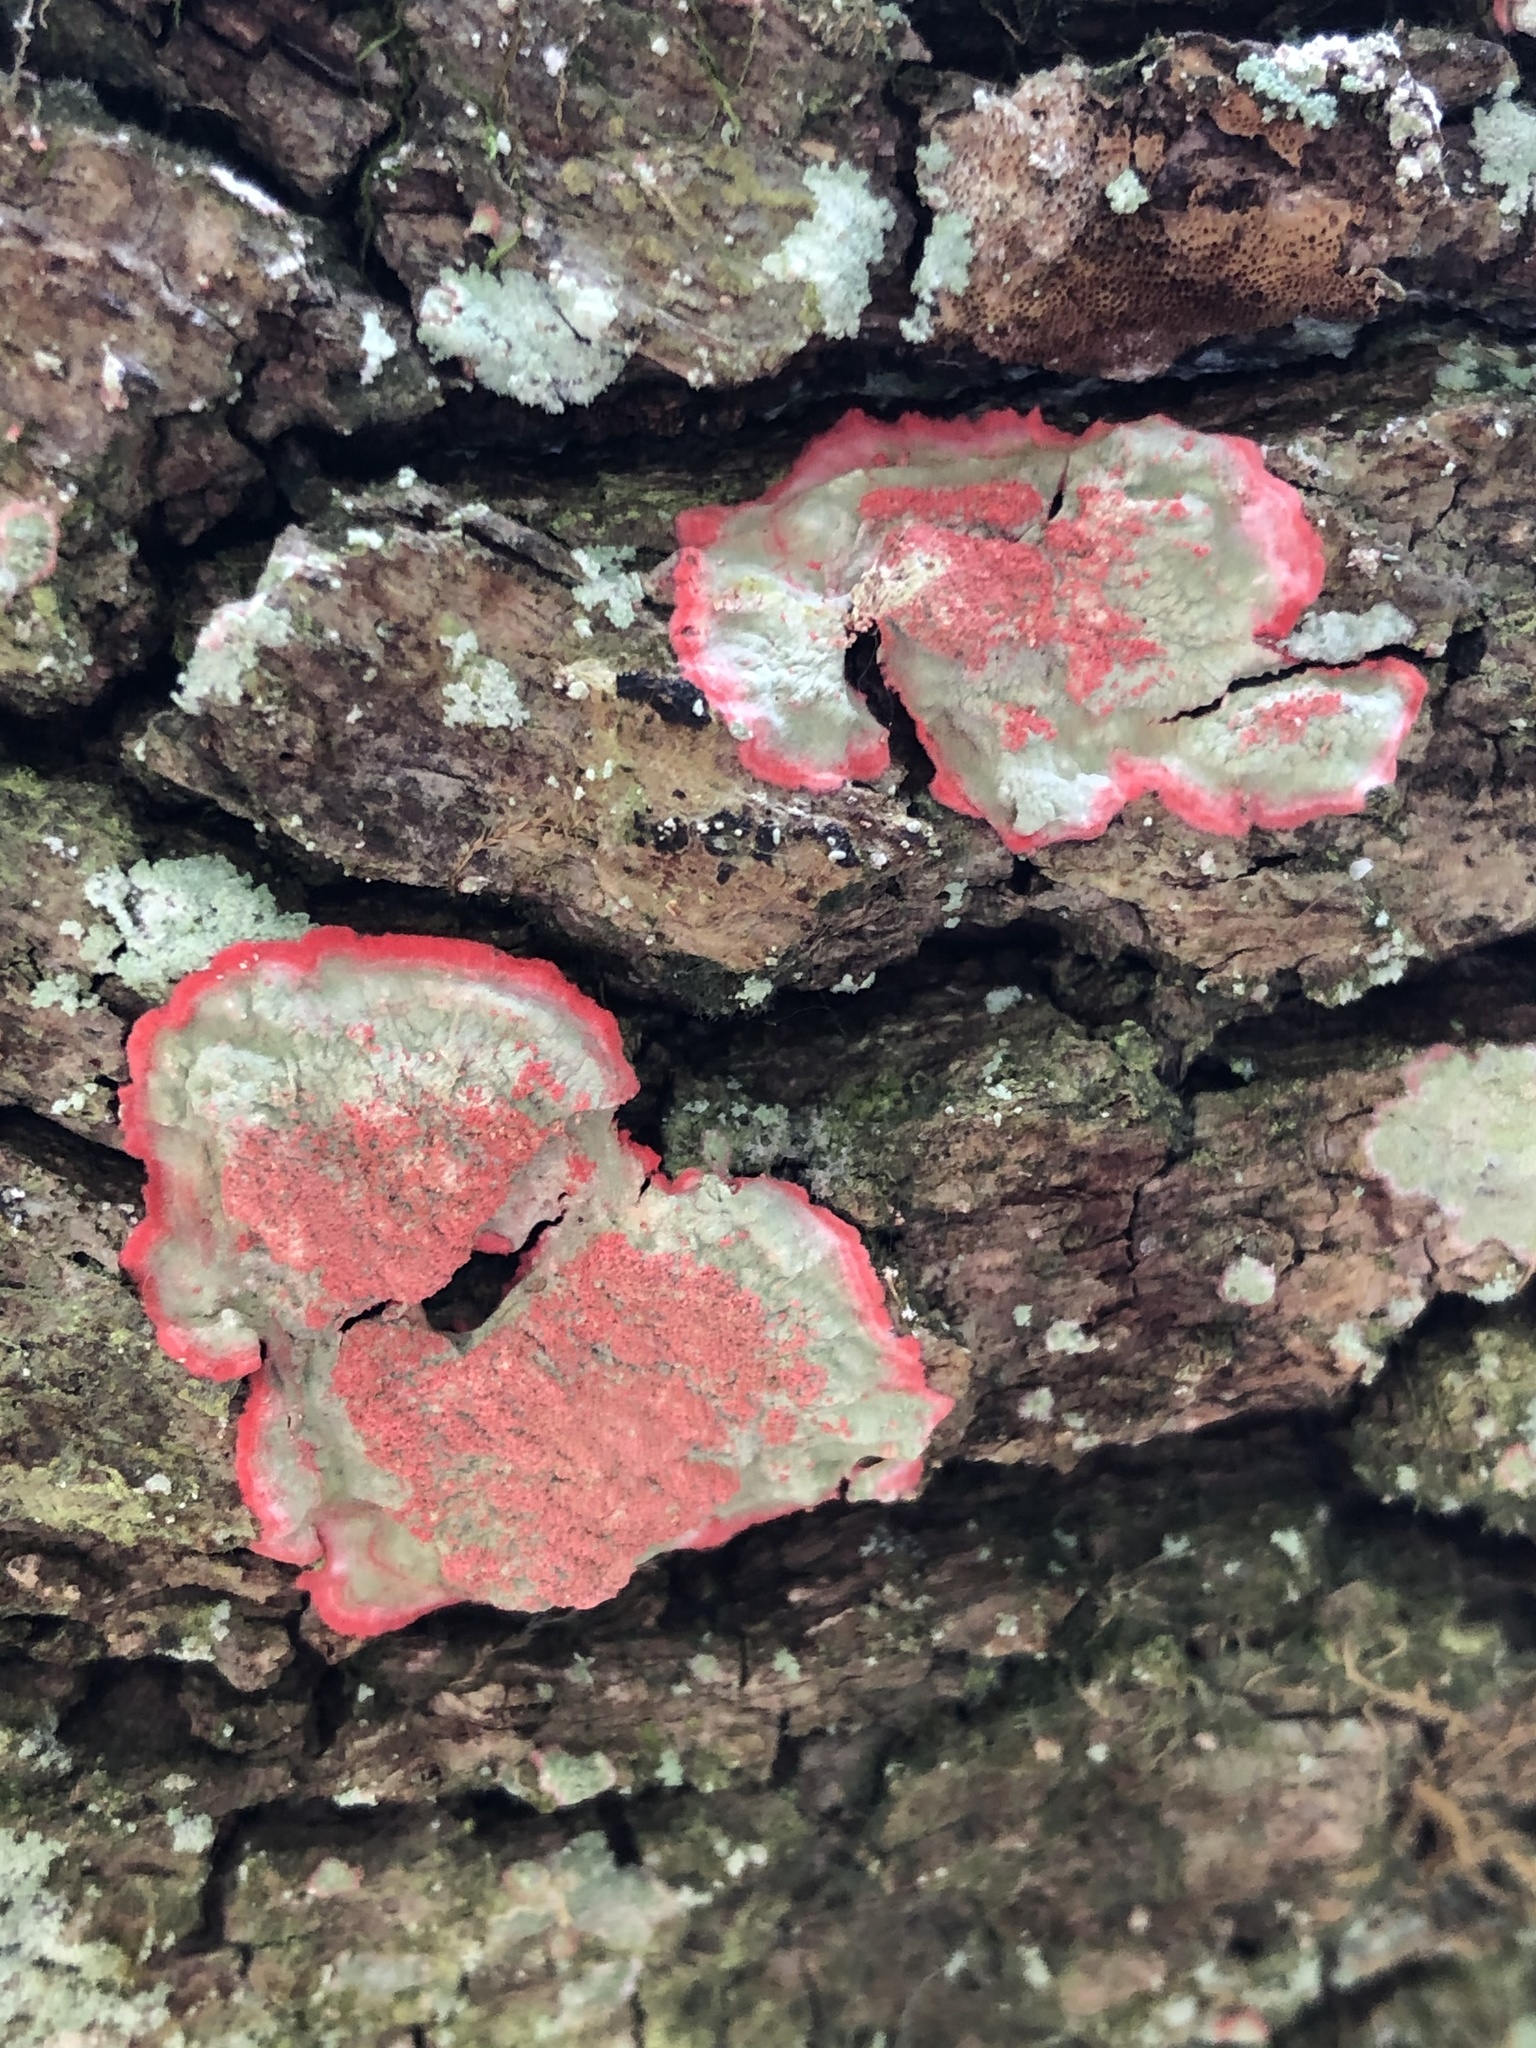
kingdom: Fungi
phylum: Ascomycota
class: Arthoniomycetes
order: Arthoniales
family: Arthoniaceae
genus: Herpothallon
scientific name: Herpothallon rubrocinctum
